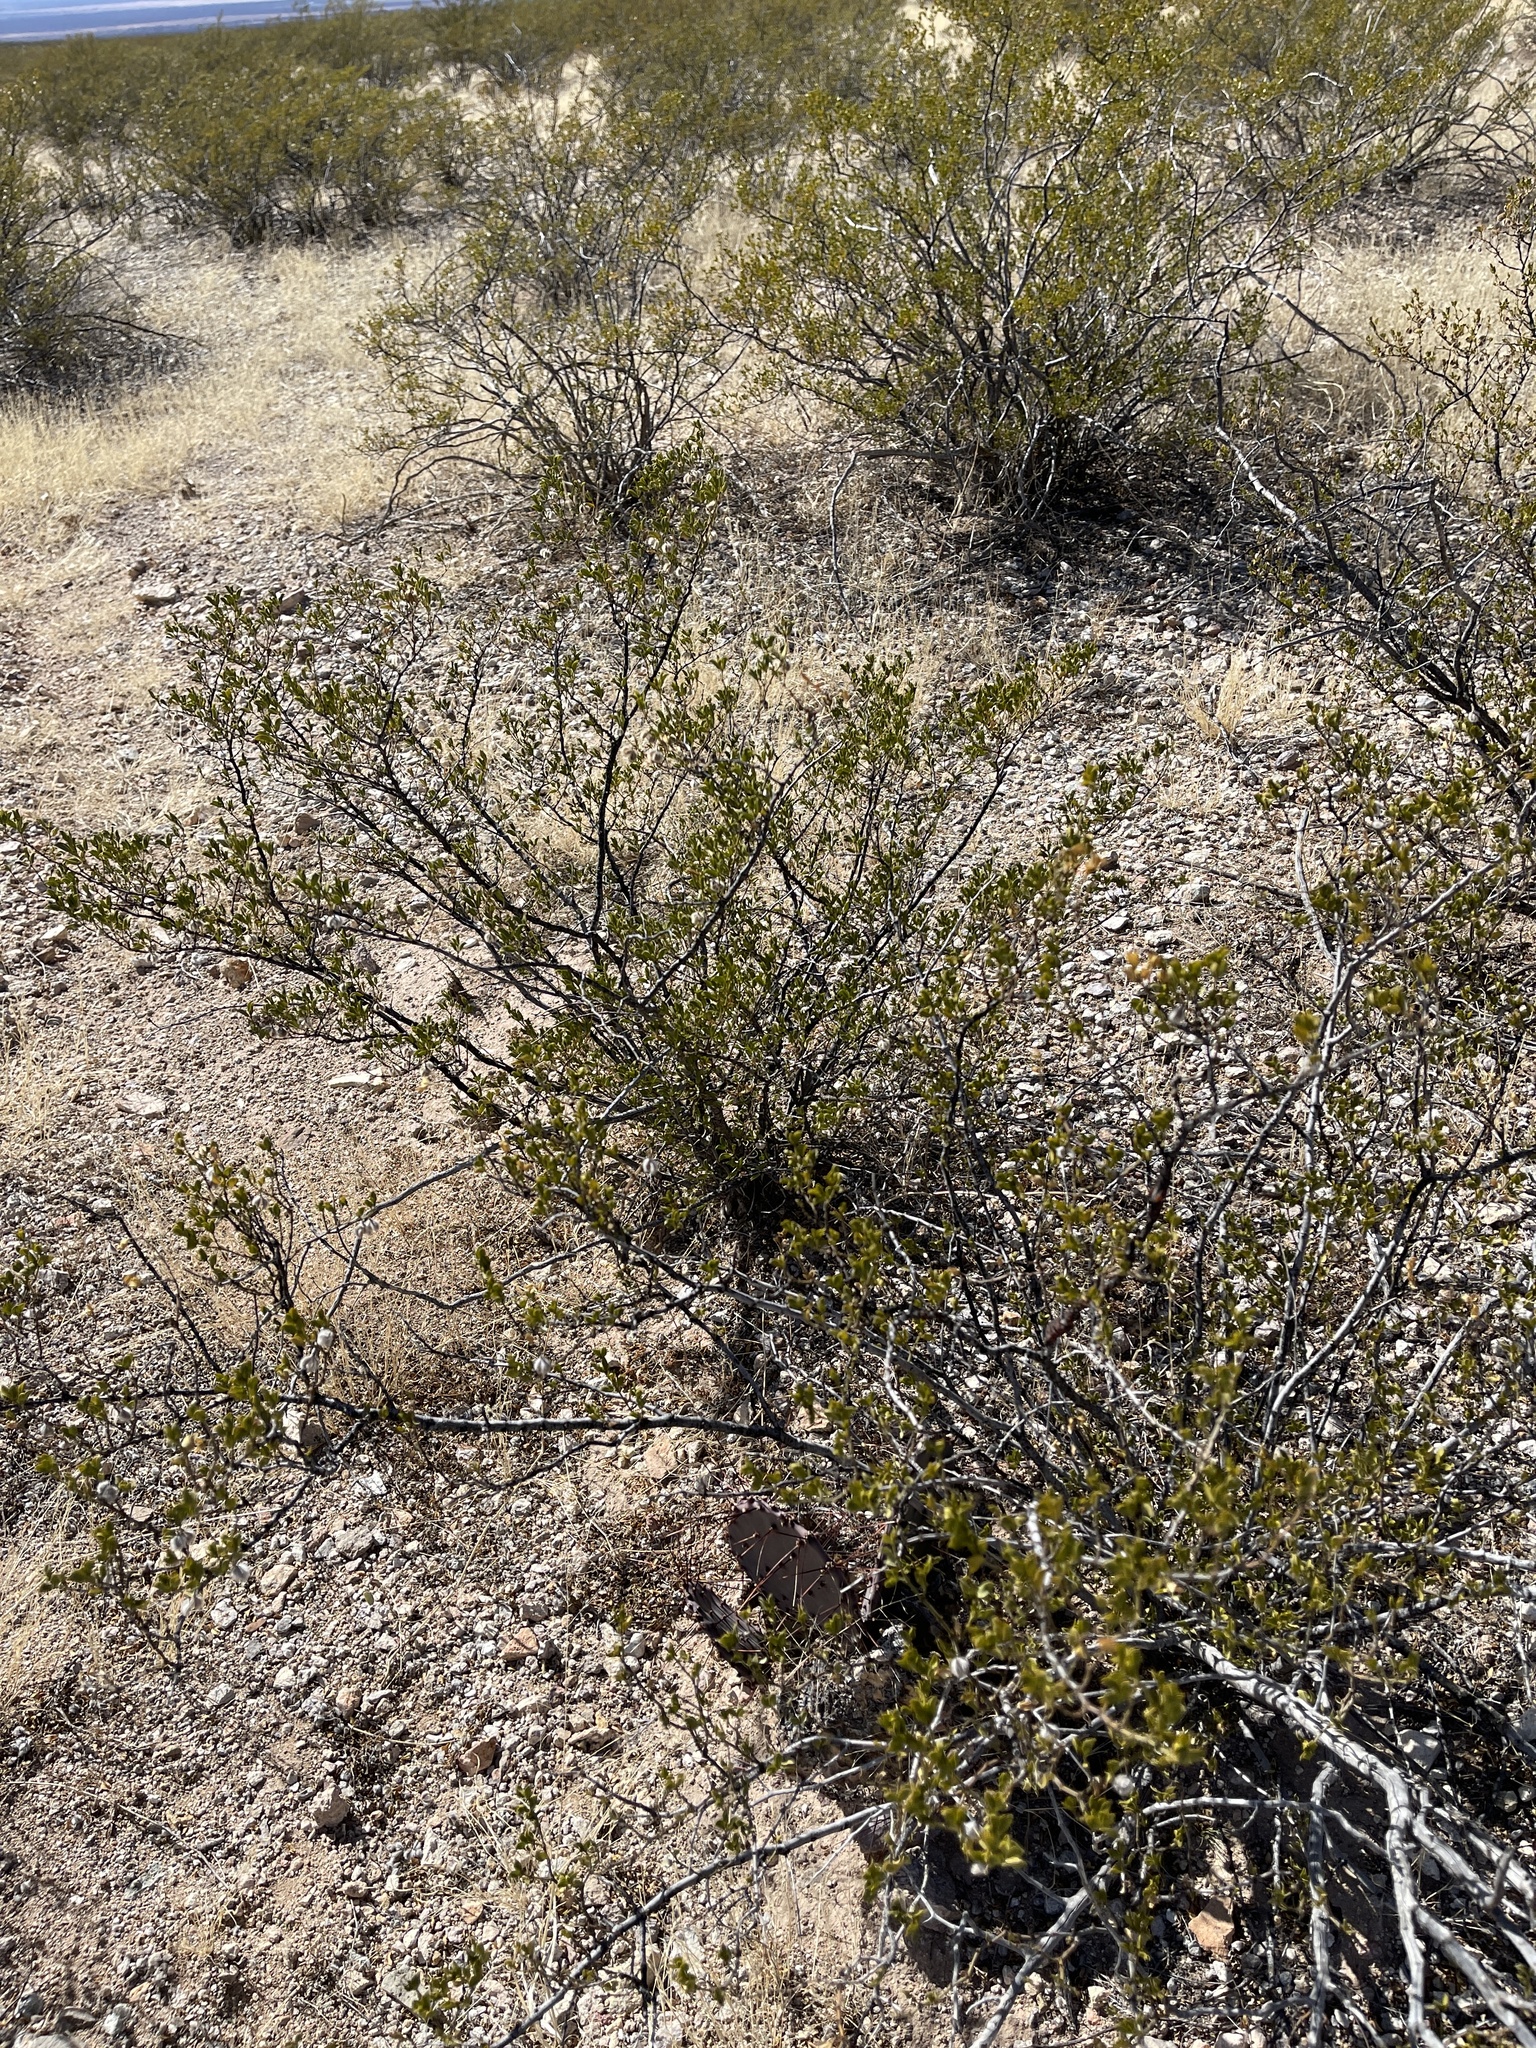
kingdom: Plantae
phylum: Tracheophyta
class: Magnoliopsida
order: Zygophyllales
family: Zygophyllaceae
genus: Larrea
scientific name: Larrea tridentata
